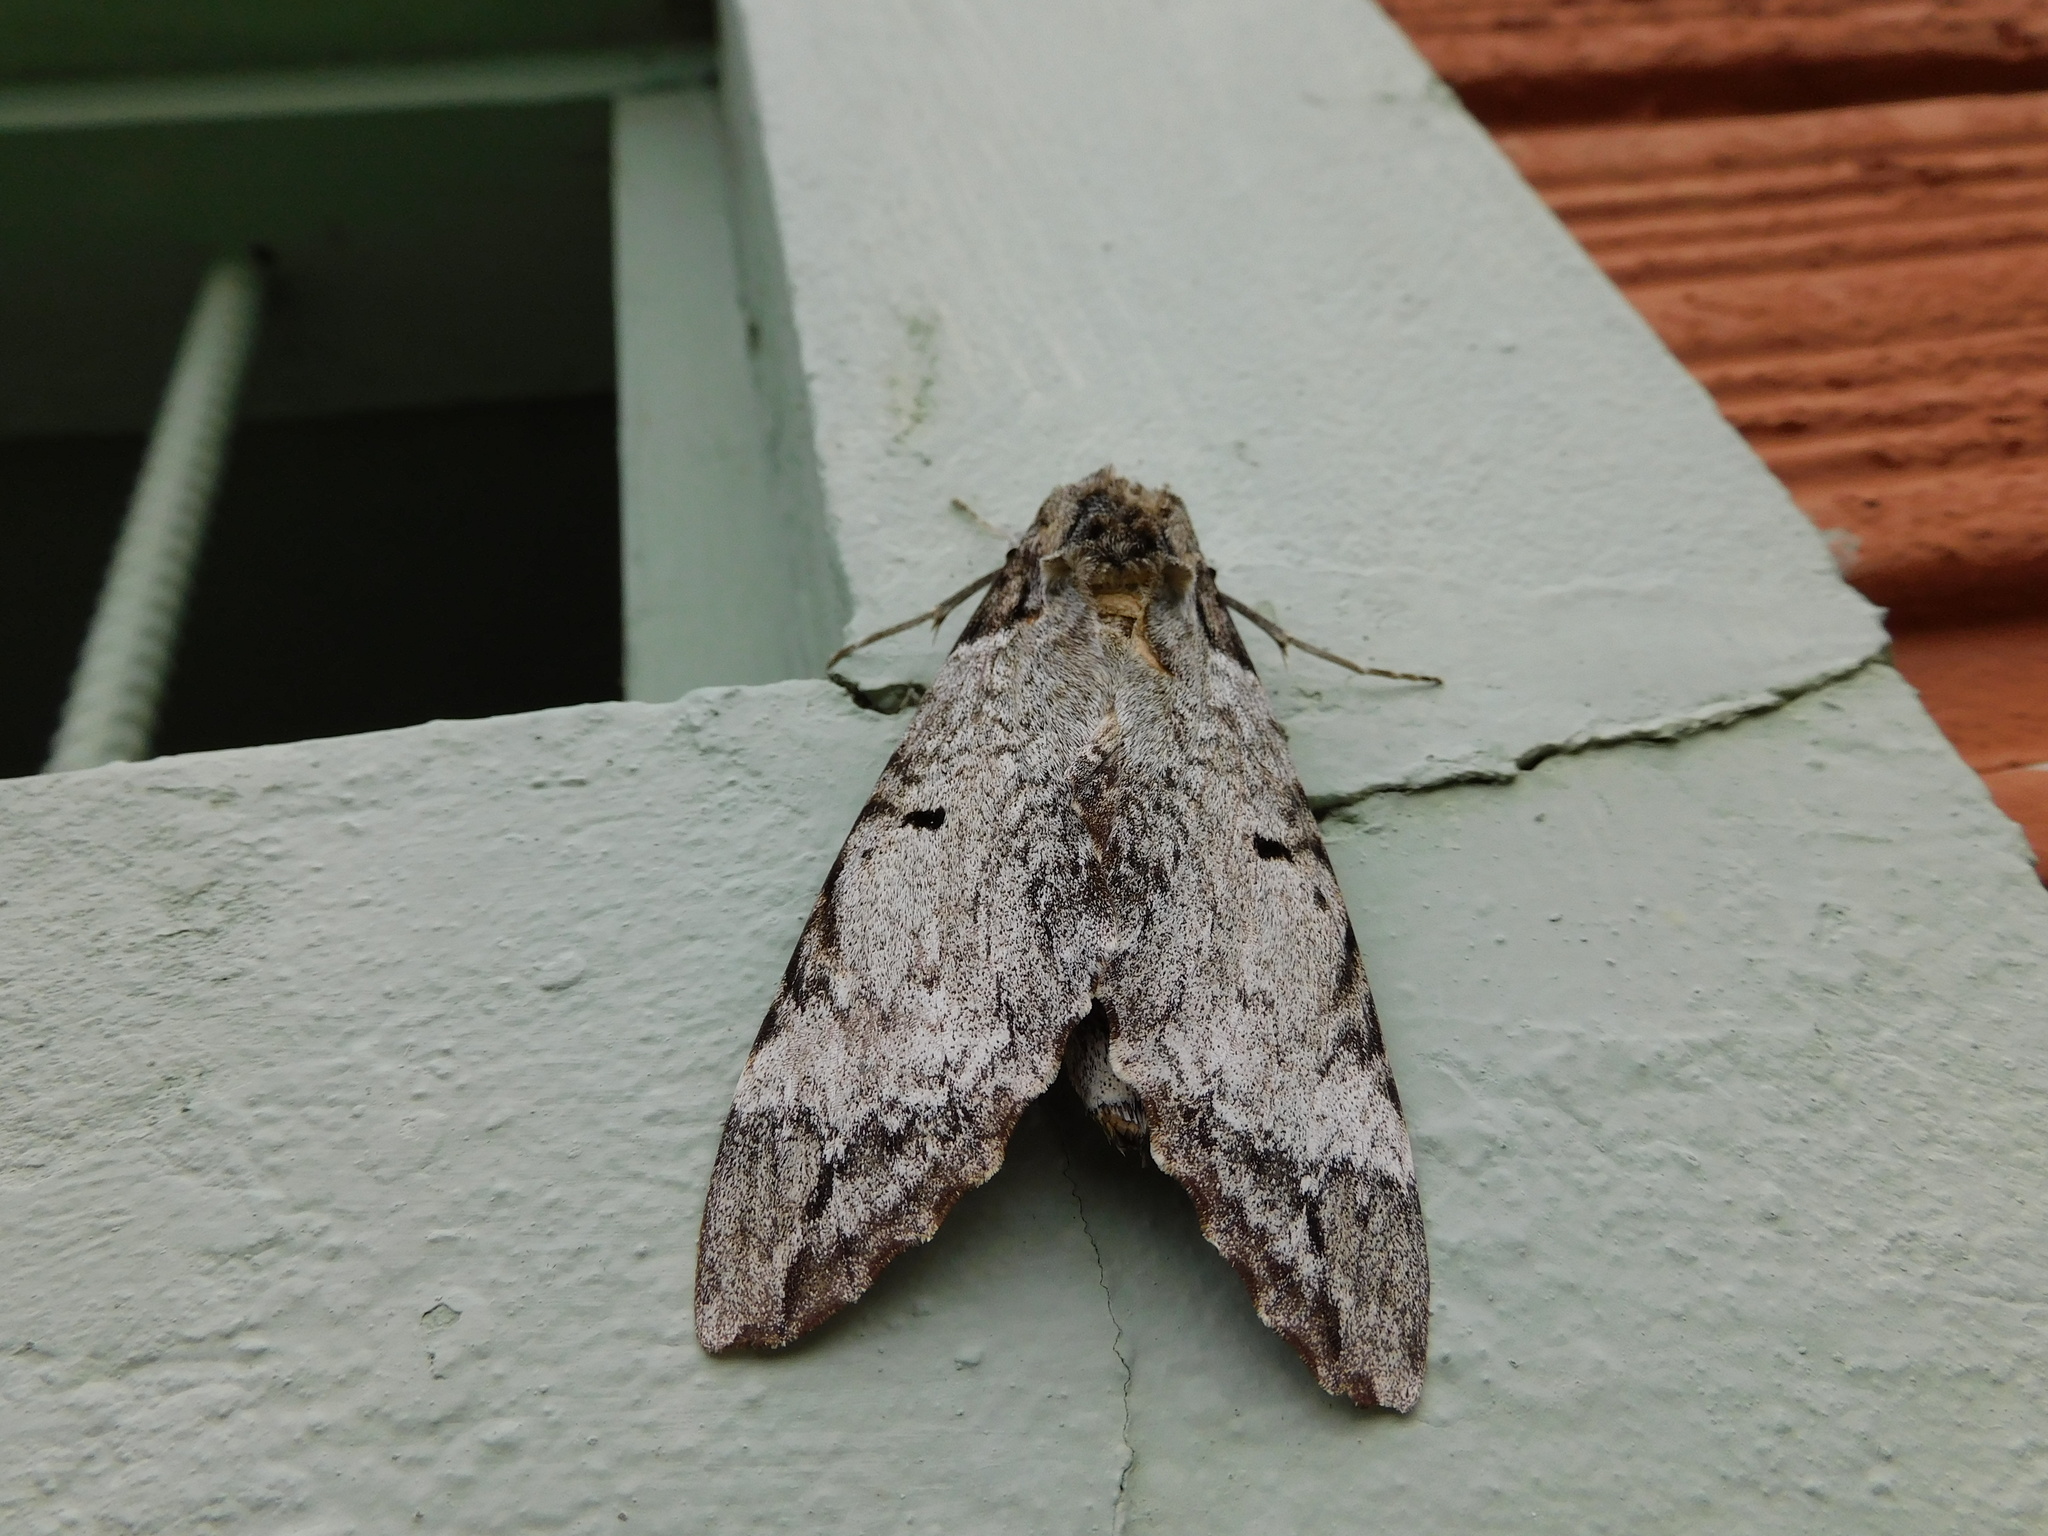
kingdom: Animalia
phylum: Arthropoda
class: Insecta
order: Lepidoptera
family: Sphingidae
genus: Pseudosphinx
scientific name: Pseudosphinx tetrio
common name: Tetrio sphinx
